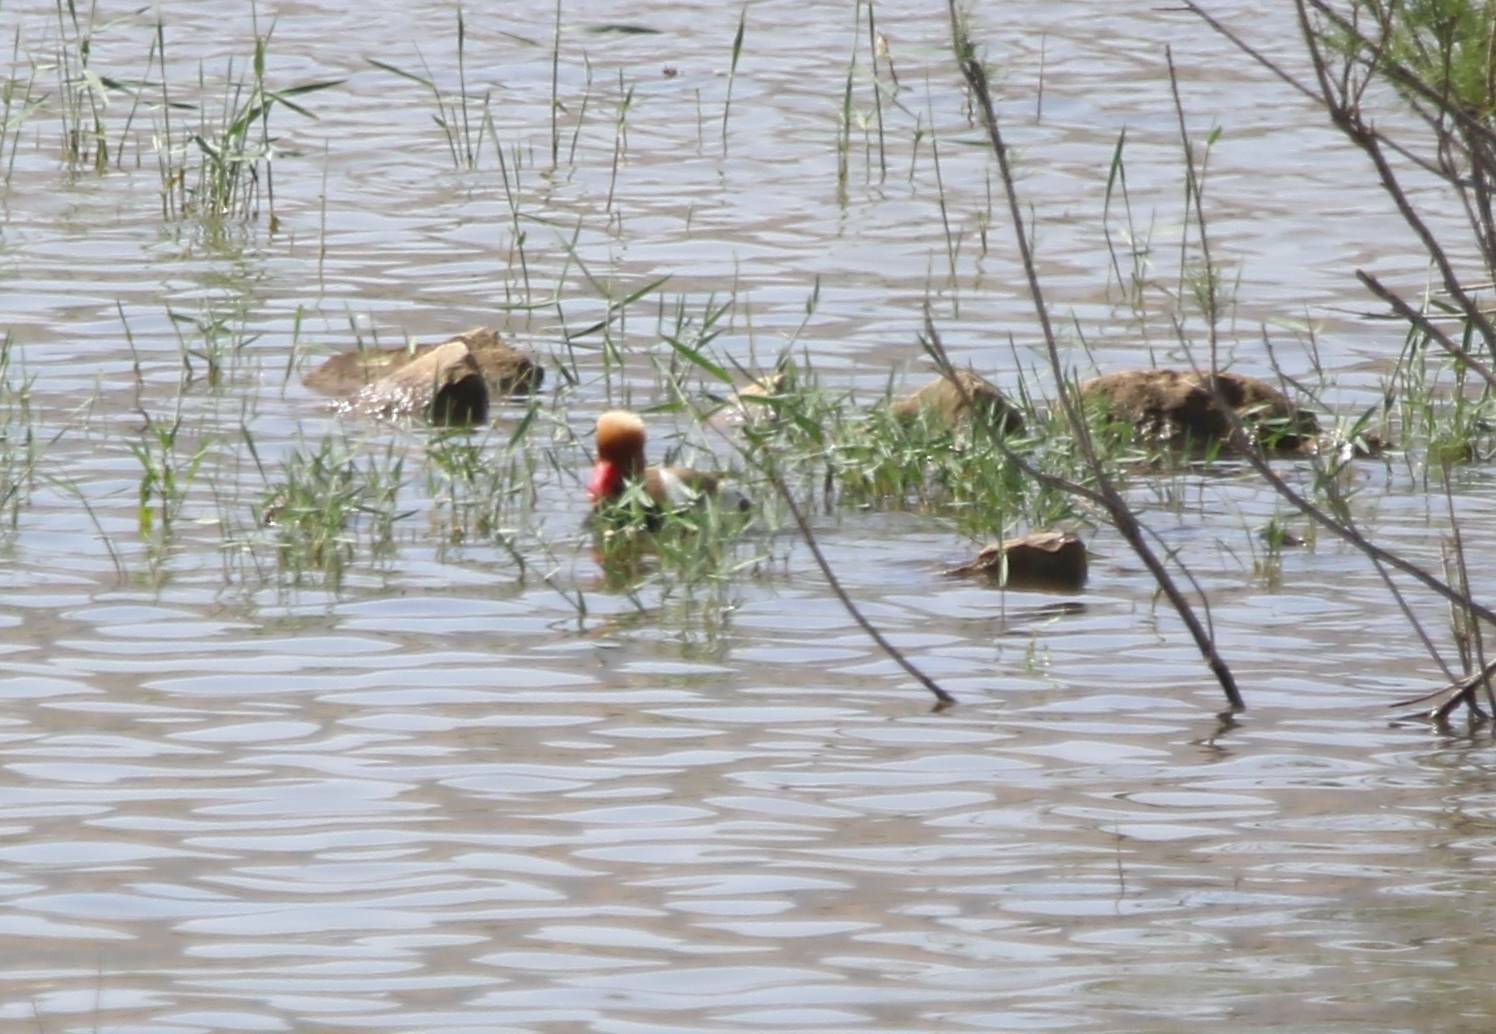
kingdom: Animalia
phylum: Chordata
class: Aves
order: Anseriformes
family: Anatidae
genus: Netta
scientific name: Netta rufina
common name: Red-crested pochard
